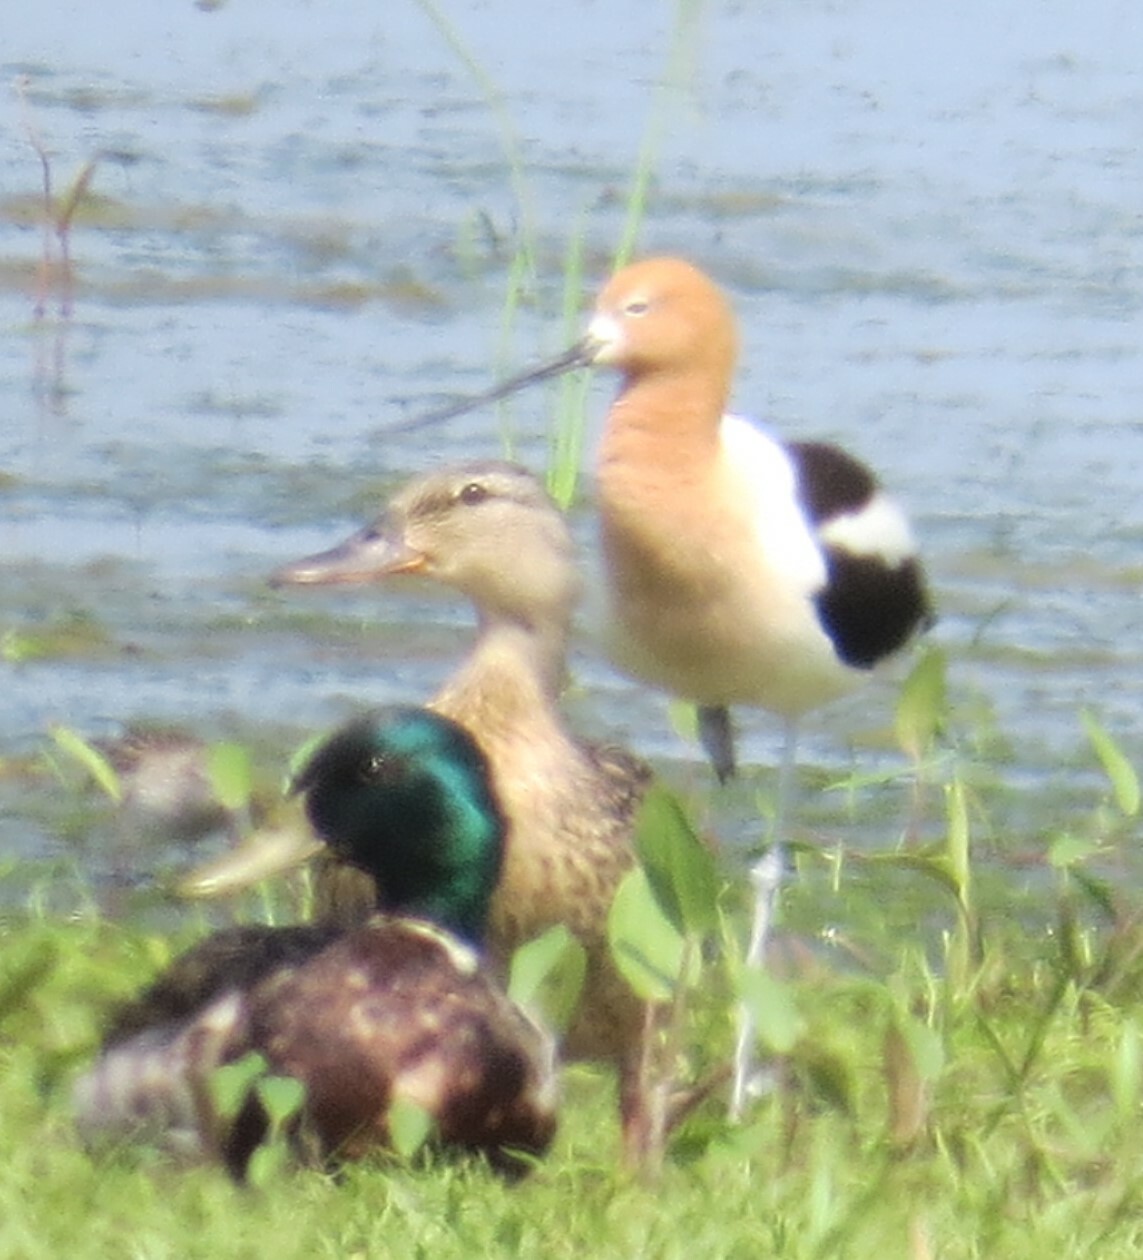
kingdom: Animalia
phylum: Chordata
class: Aves
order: Charadriiformes
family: Recurvirostridae
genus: Recurvirostra
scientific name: Recurvirostra americana
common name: American avocet
